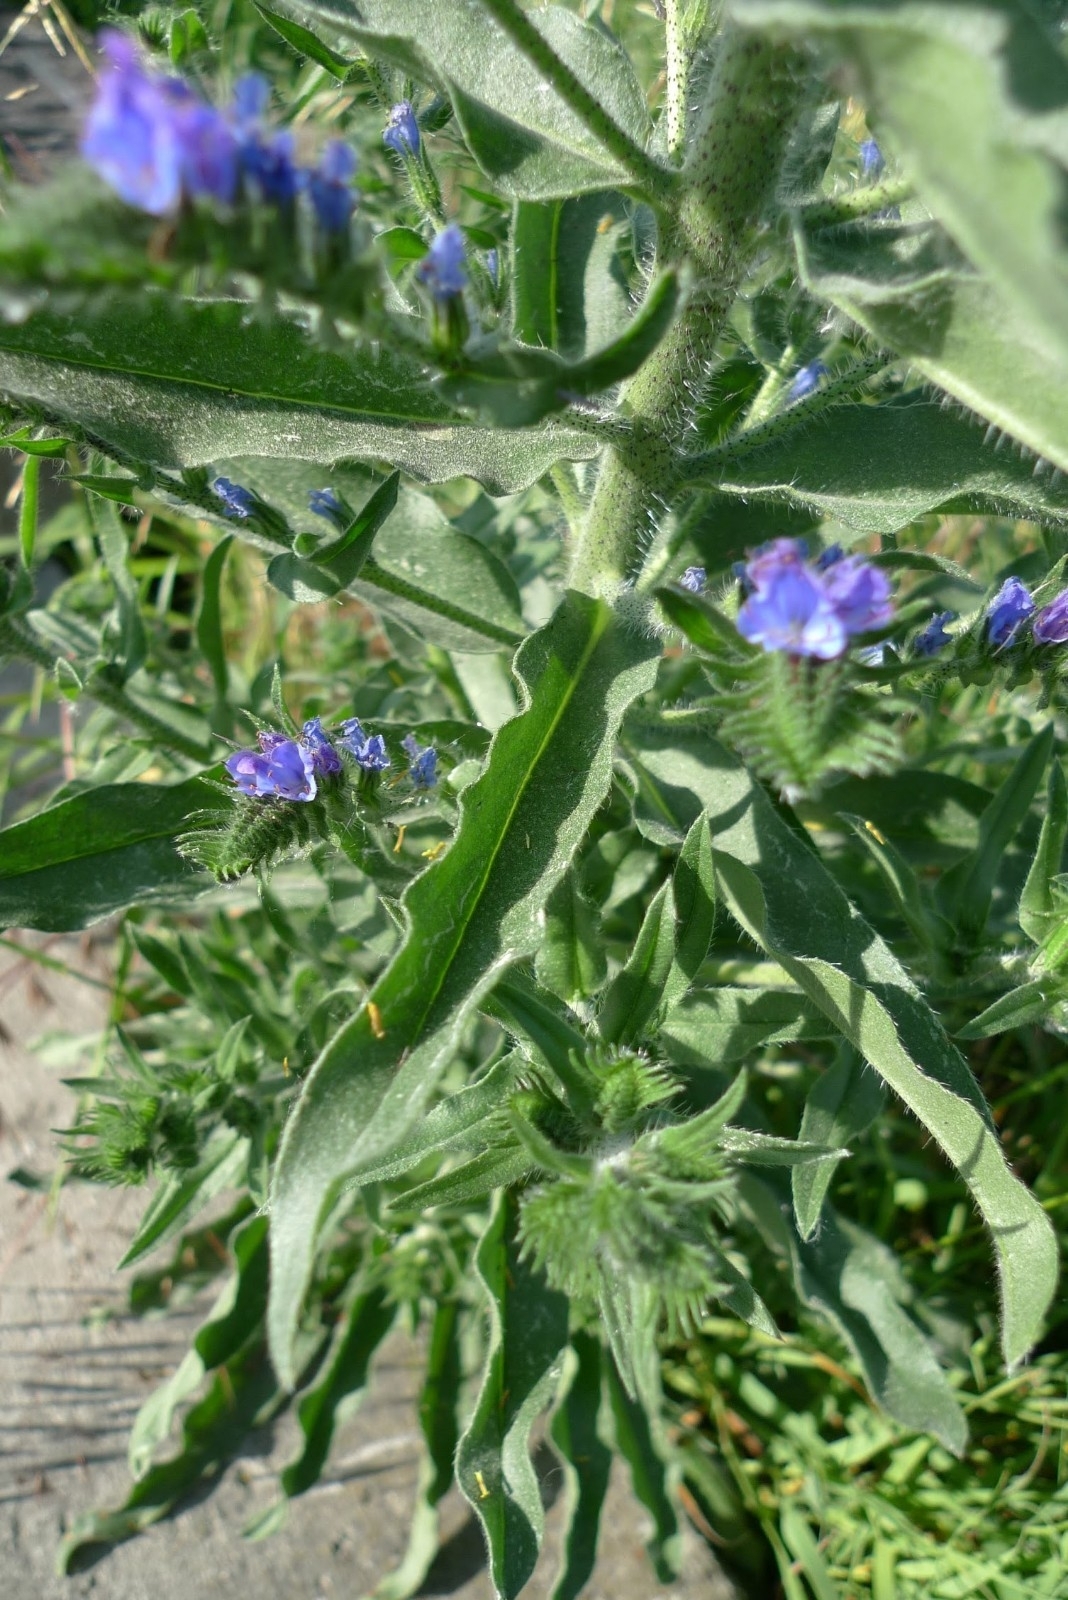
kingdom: Plantae
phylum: Tracheophyta
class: Magnoliopsida
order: Boraginales
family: Boraginaceae
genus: Echium
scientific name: Echium vulgare
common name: Common viper's bugloss
